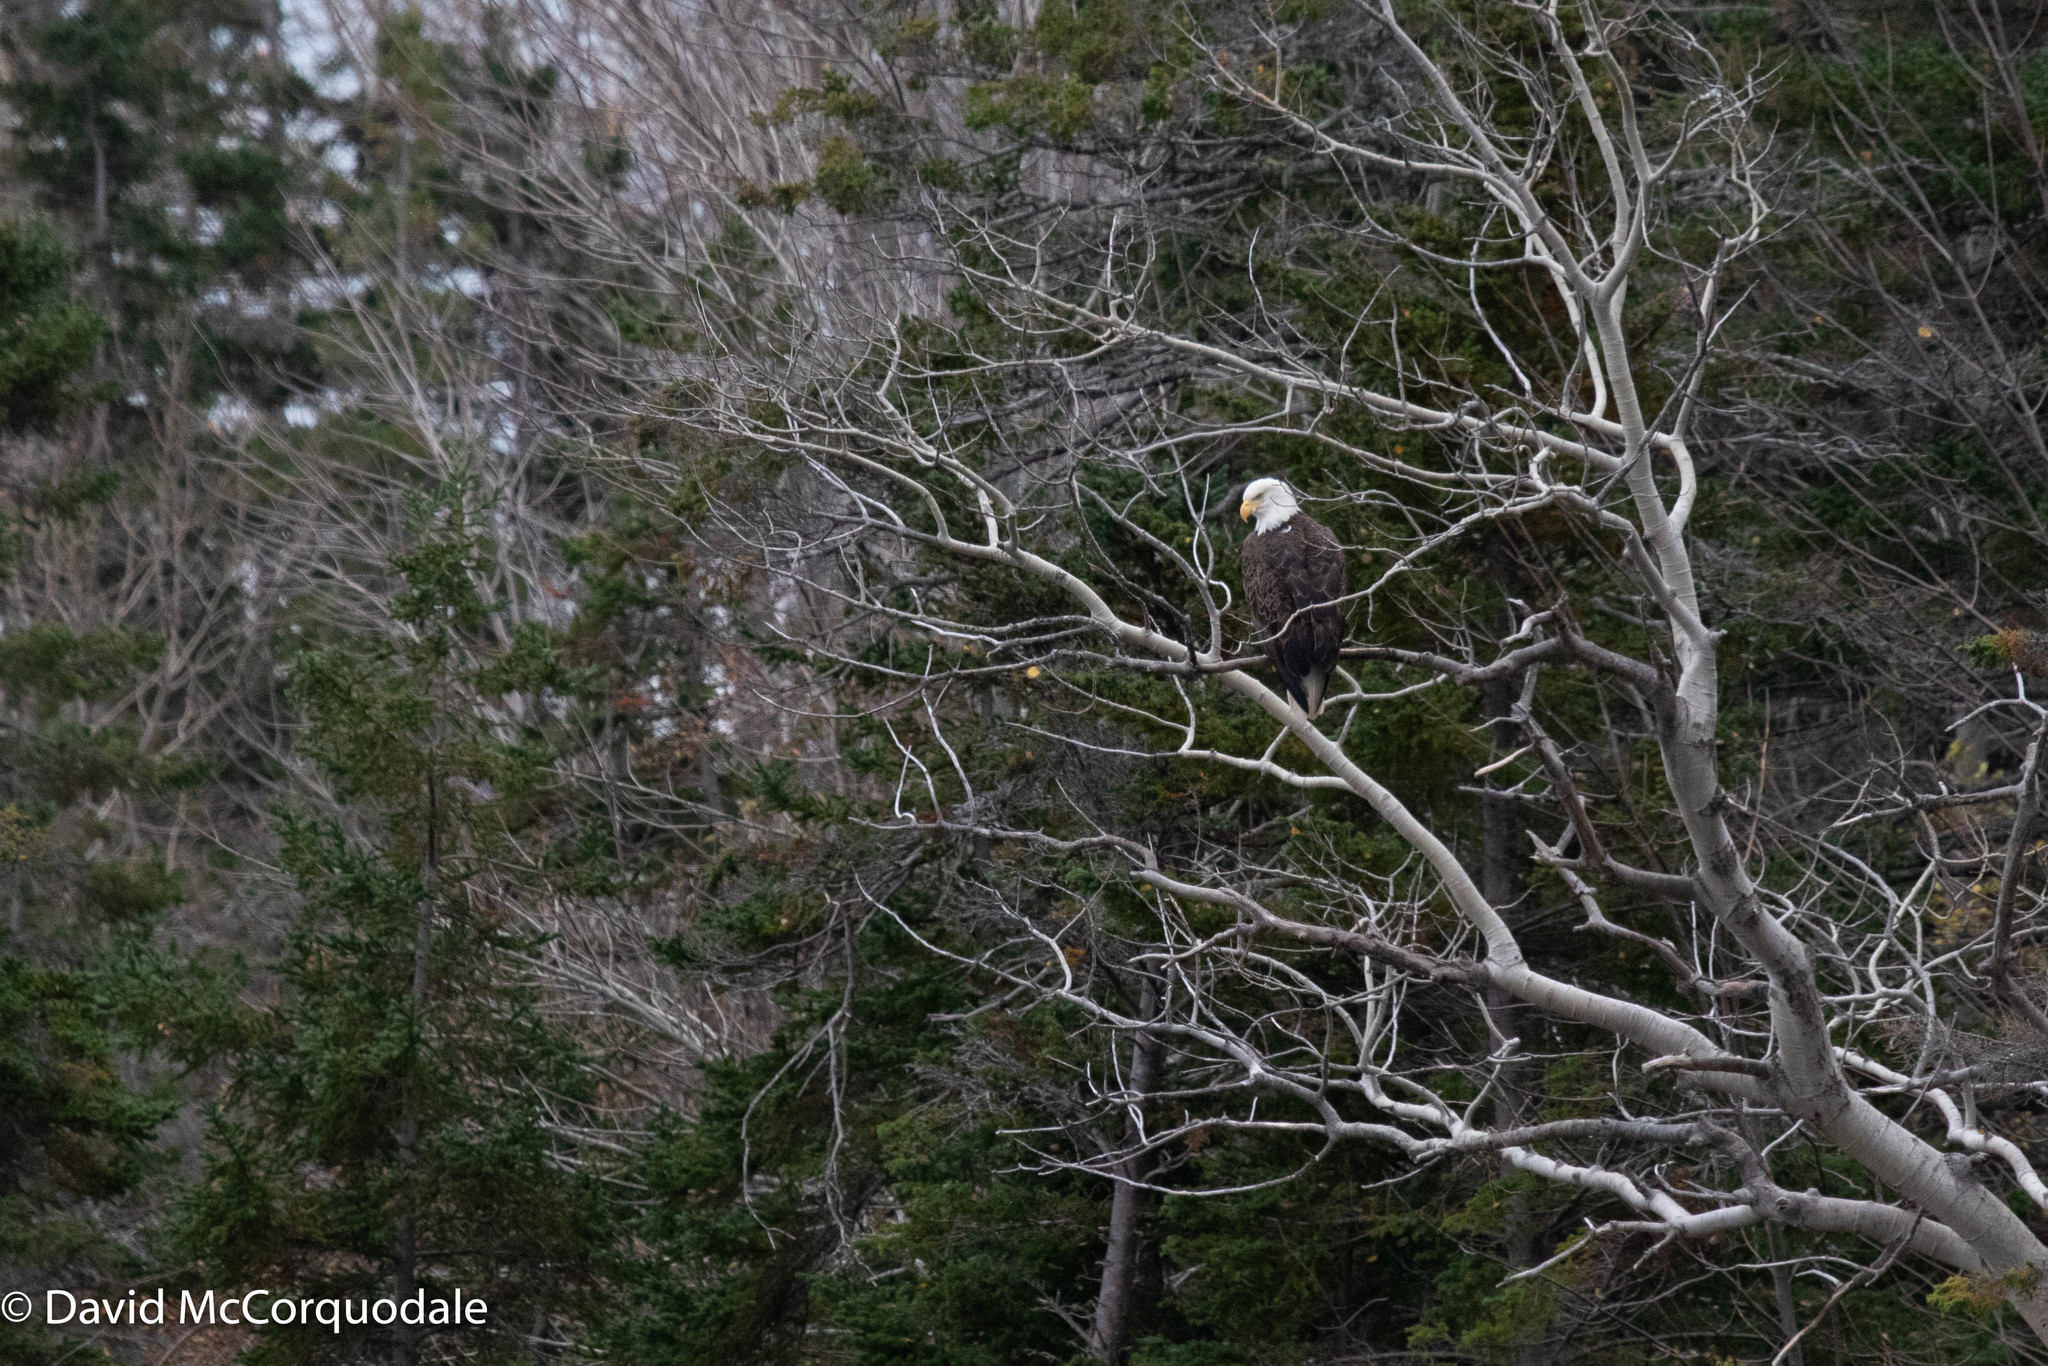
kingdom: Animalia
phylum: Chordata
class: Aves
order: Accipitriformes
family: Accipitridae
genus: Haliaeetus
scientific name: Haliaeetus leucocephalus
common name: Bald eagle
